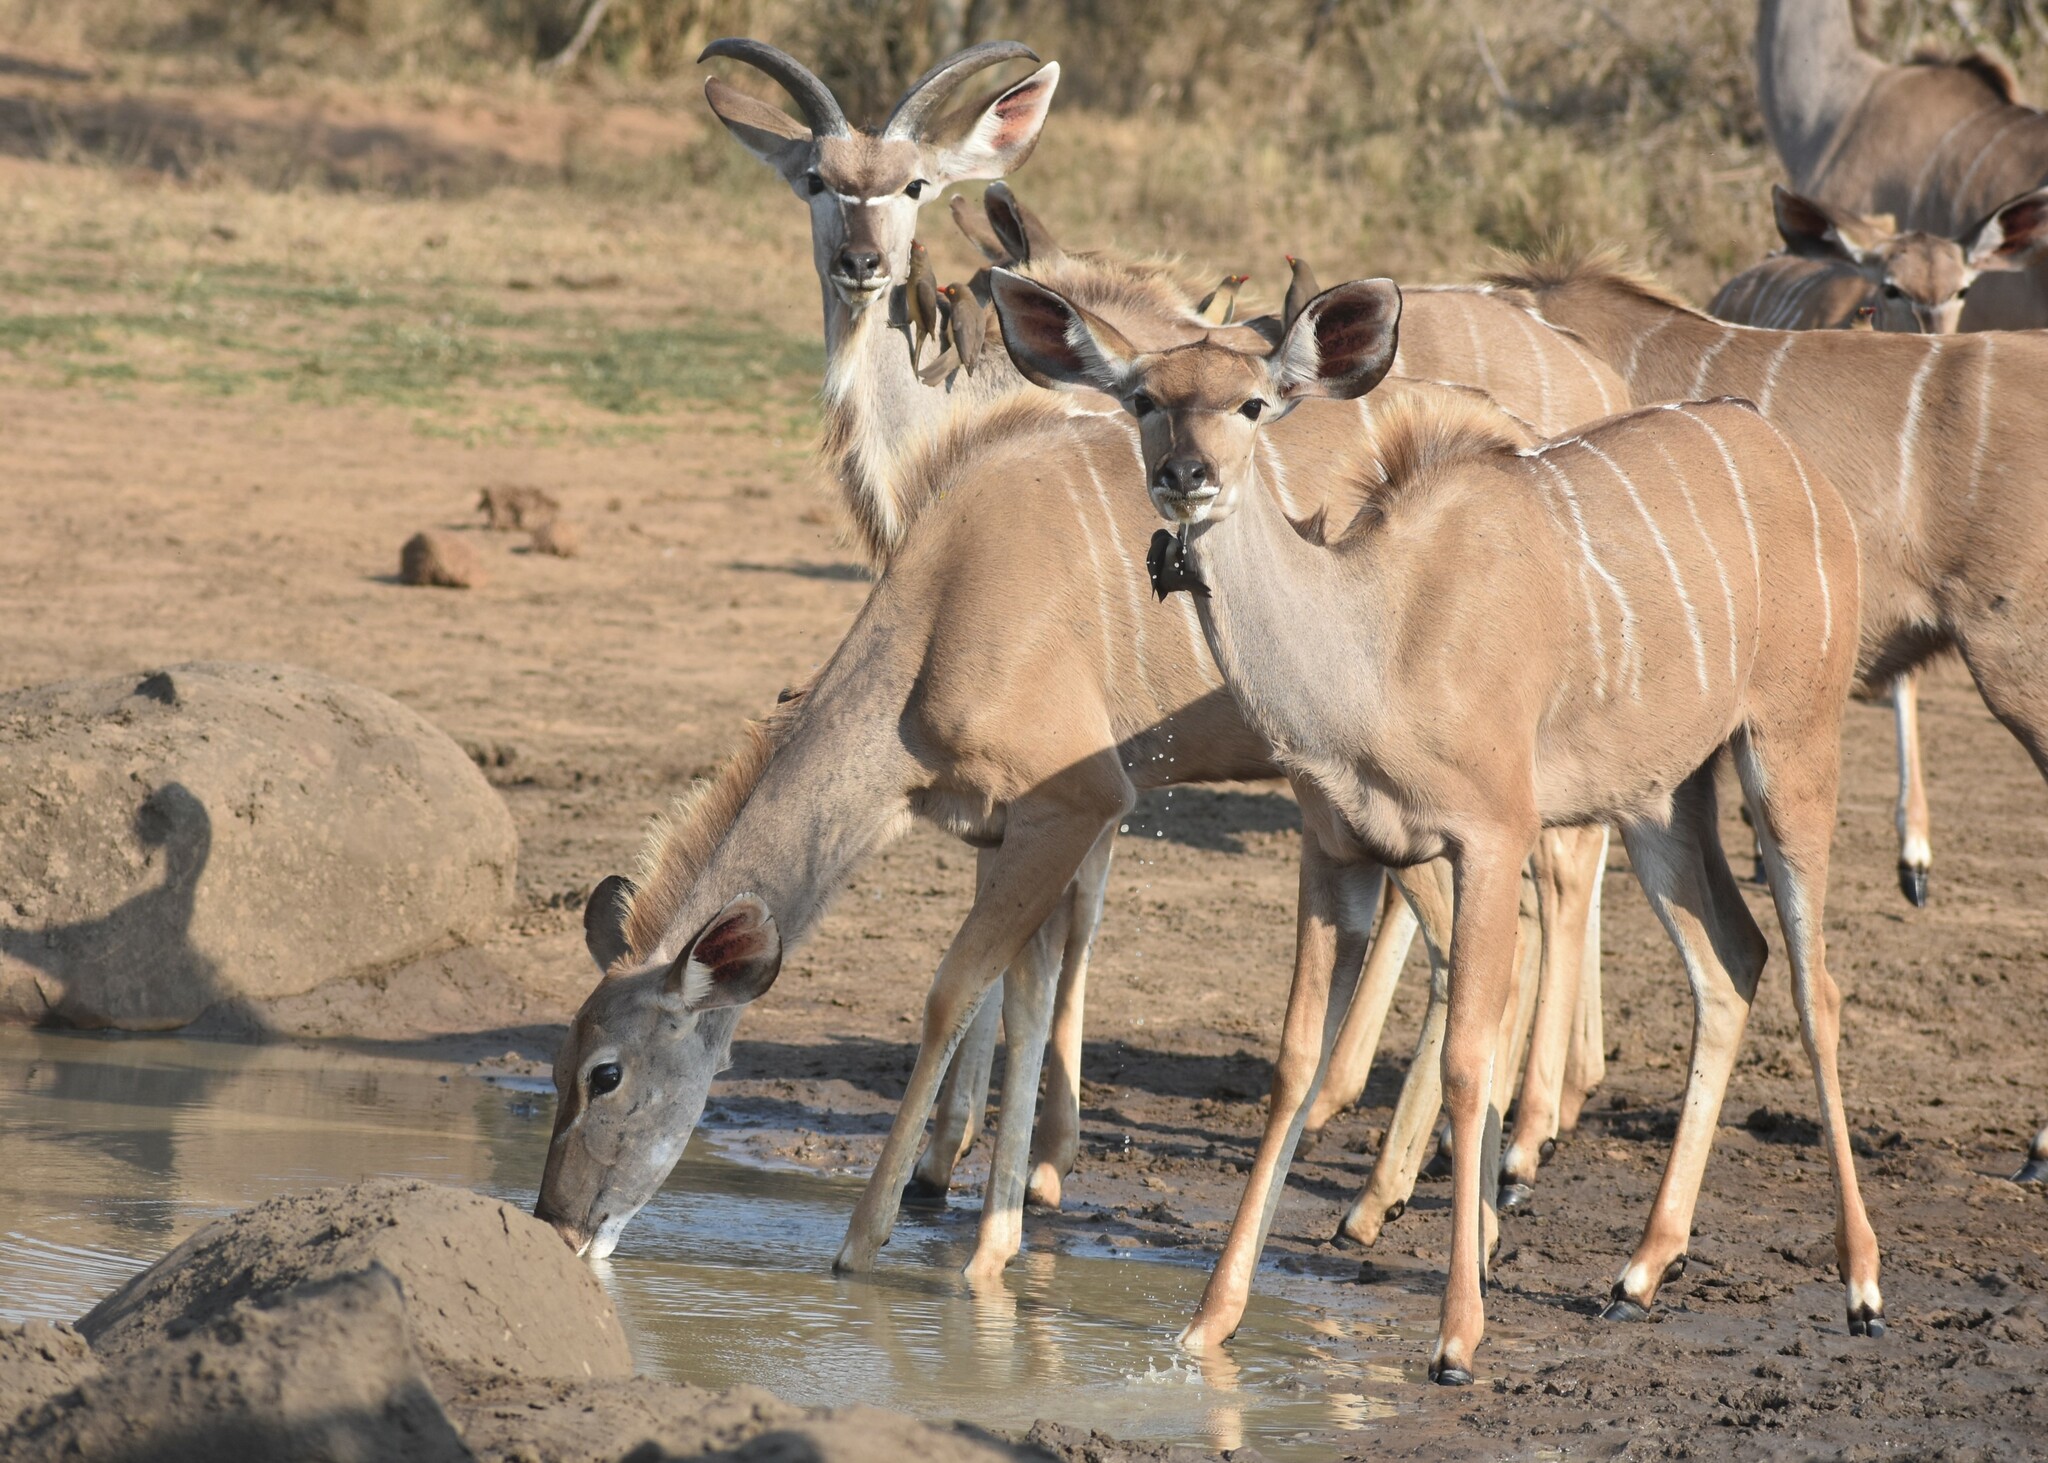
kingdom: Animalia
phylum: Chordata
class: Mammalia
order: Artiodactyla
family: Bovidae
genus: Tragelaphus
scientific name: Tragelaphus strepsiceros
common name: Greater kudu
